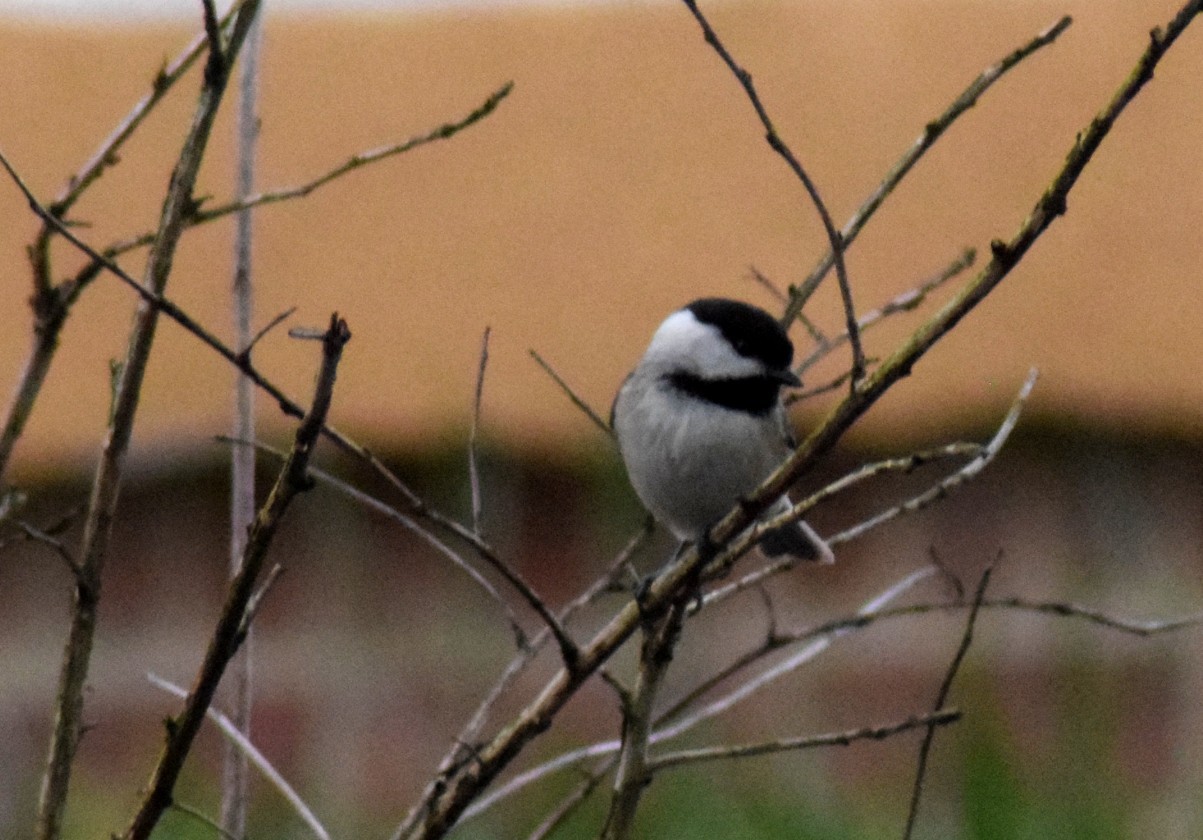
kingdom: Animalia
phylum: Chordata
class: Aves
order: Passeriformes
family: Paridae
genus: Poecile
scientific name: Poecile carolinensis
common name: Carolina chickadee
